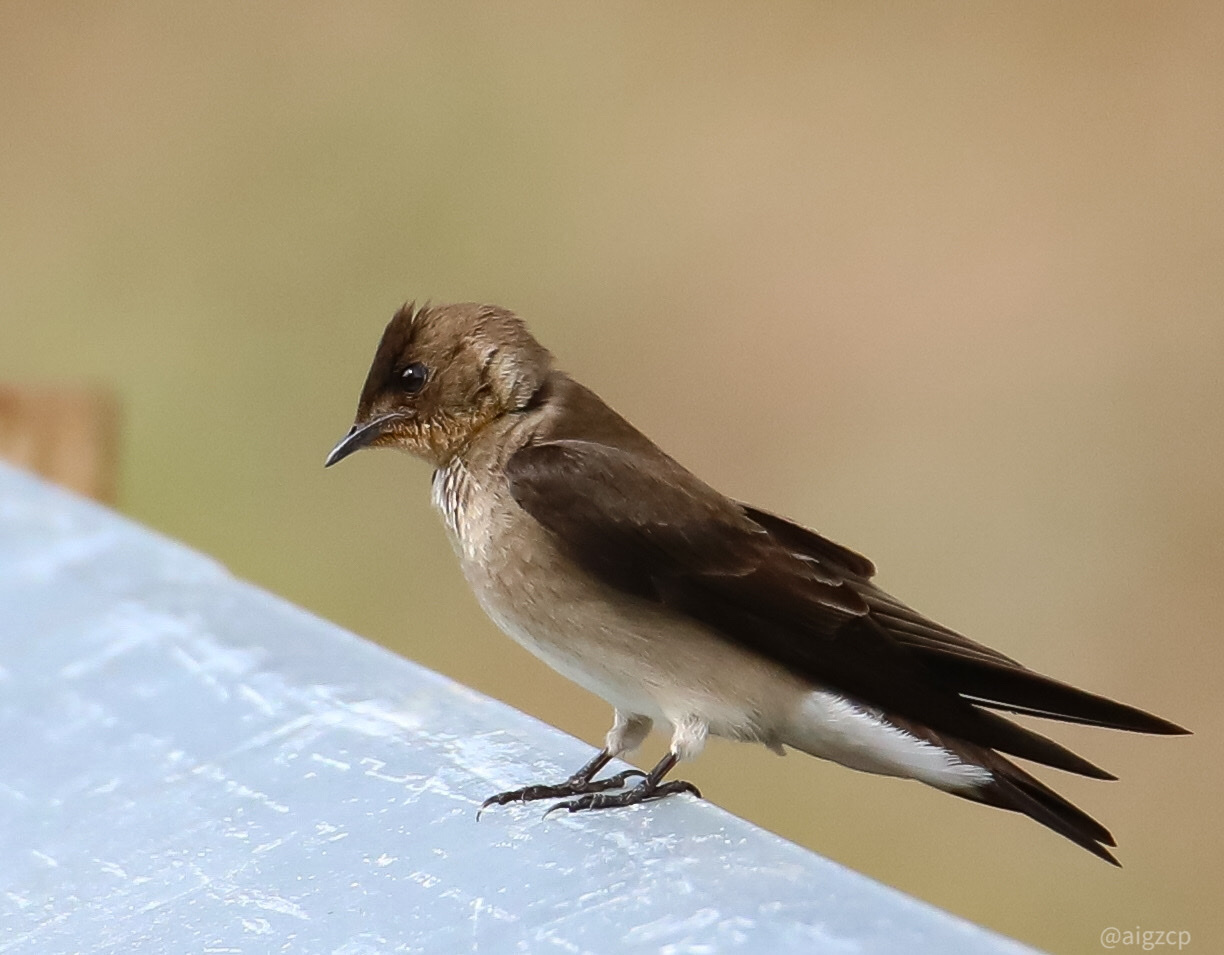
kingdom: Animalia
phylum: Chordata
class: Aves
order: Passeriformes
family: Hirundinidae
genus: Stelgidopteryx
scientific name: Stelgidopteryx ruficollis
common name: Southern rough-winged swallow
